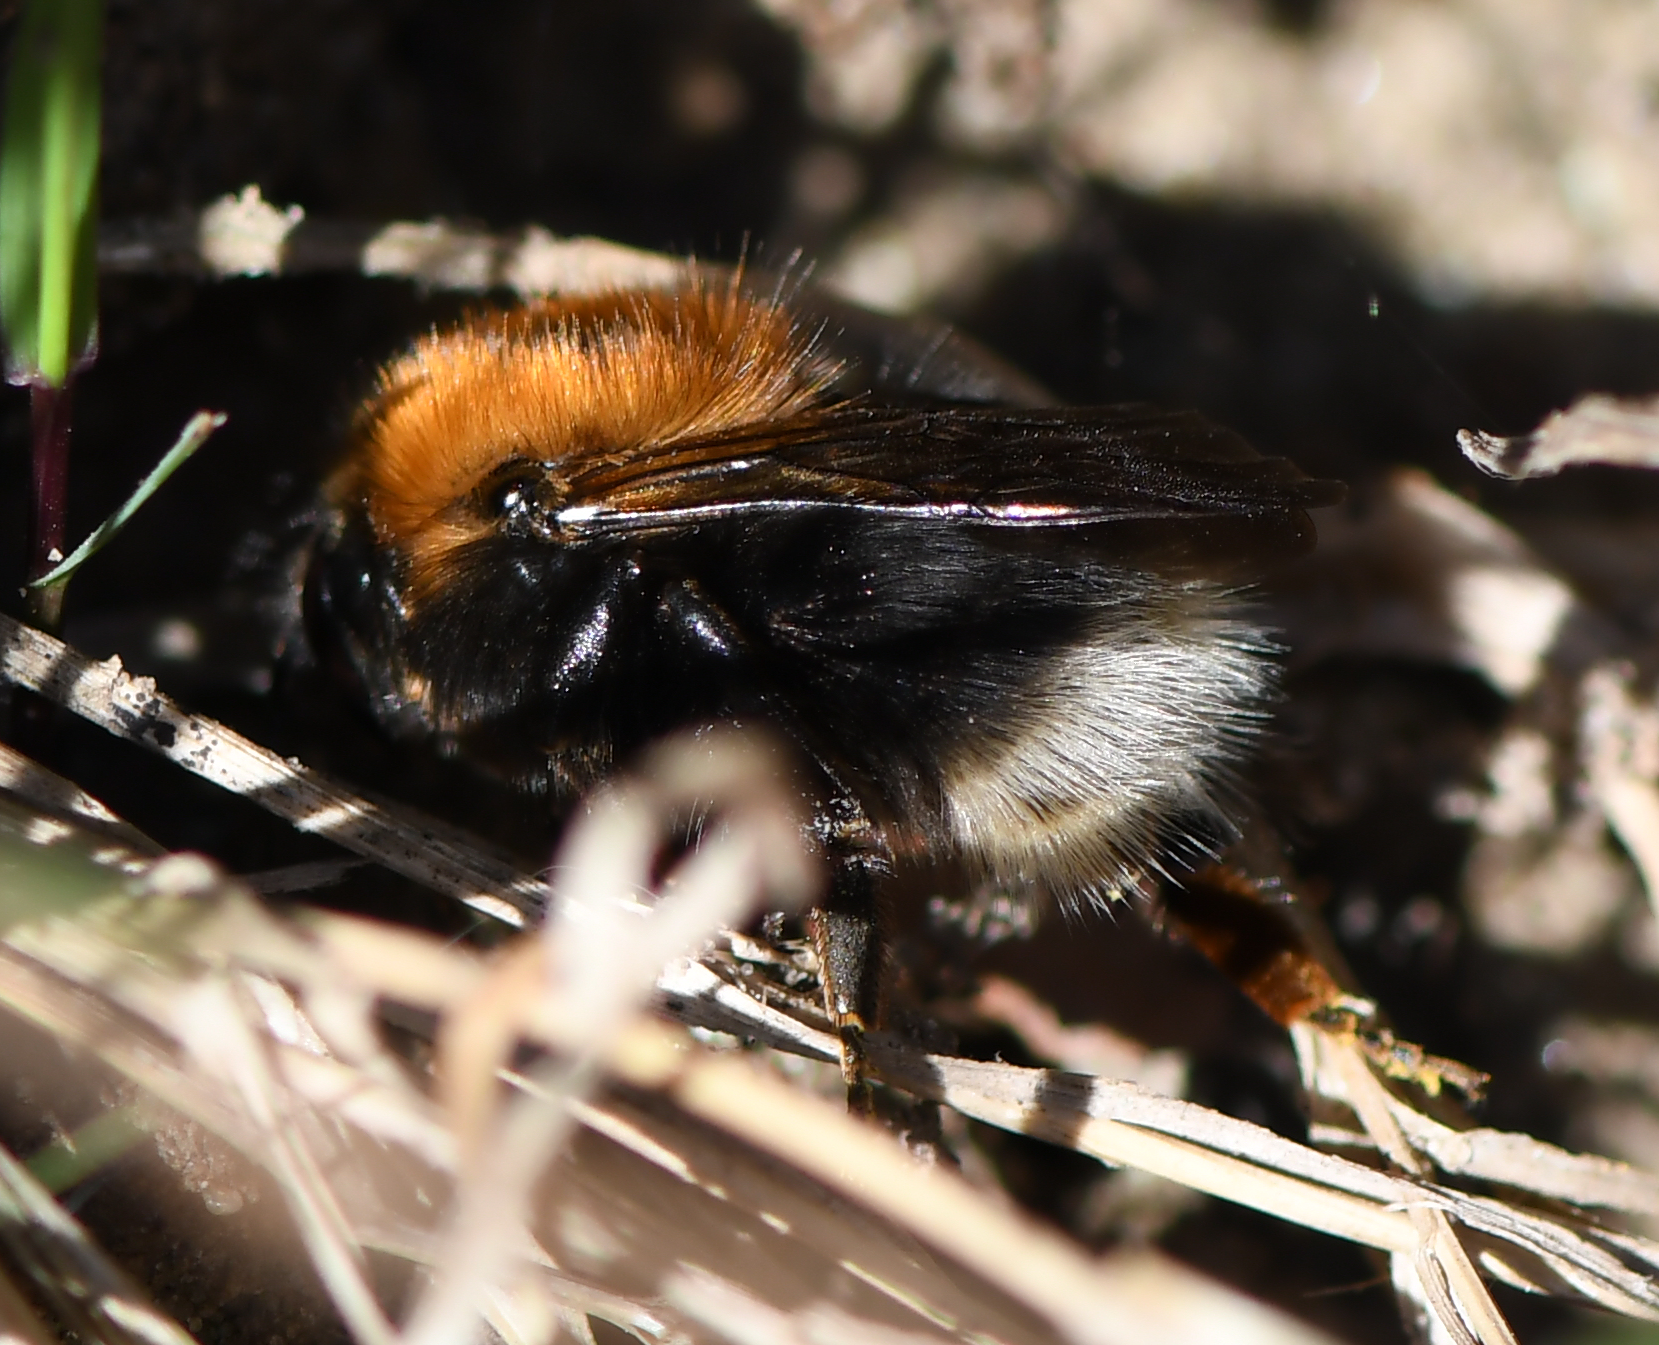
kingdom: Animalia
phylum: Arthropoda
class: Insecta
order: Hymenoptera
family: Apidae
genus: Bombus
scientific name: Bombus hypnorum
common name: New garden bumblebee
